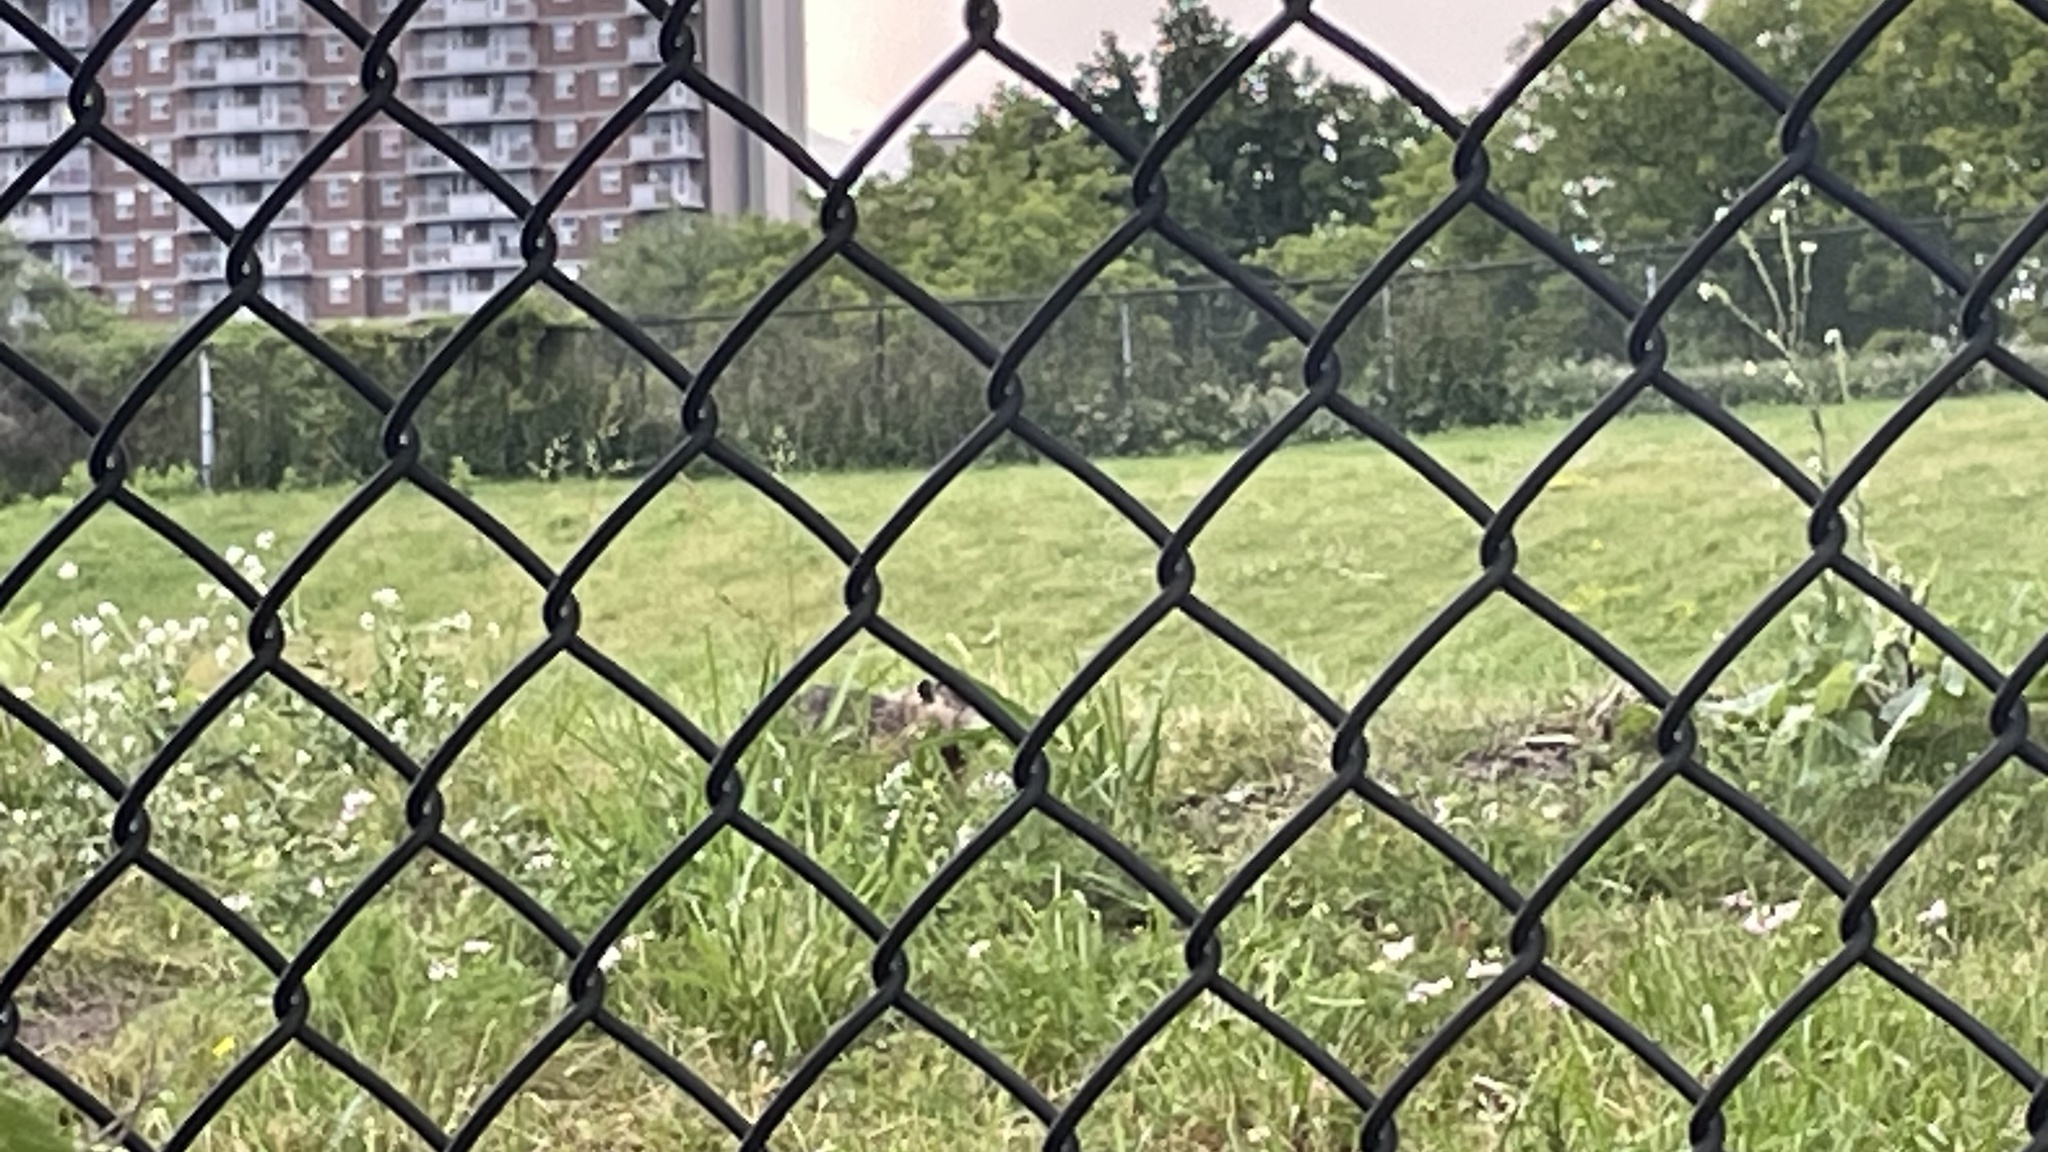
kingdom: Animalia
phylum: Chordata
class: Mammalia
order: Rodentia
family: Sciuridae
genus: Marmota
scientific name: Marmota monax
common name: Groundhog
